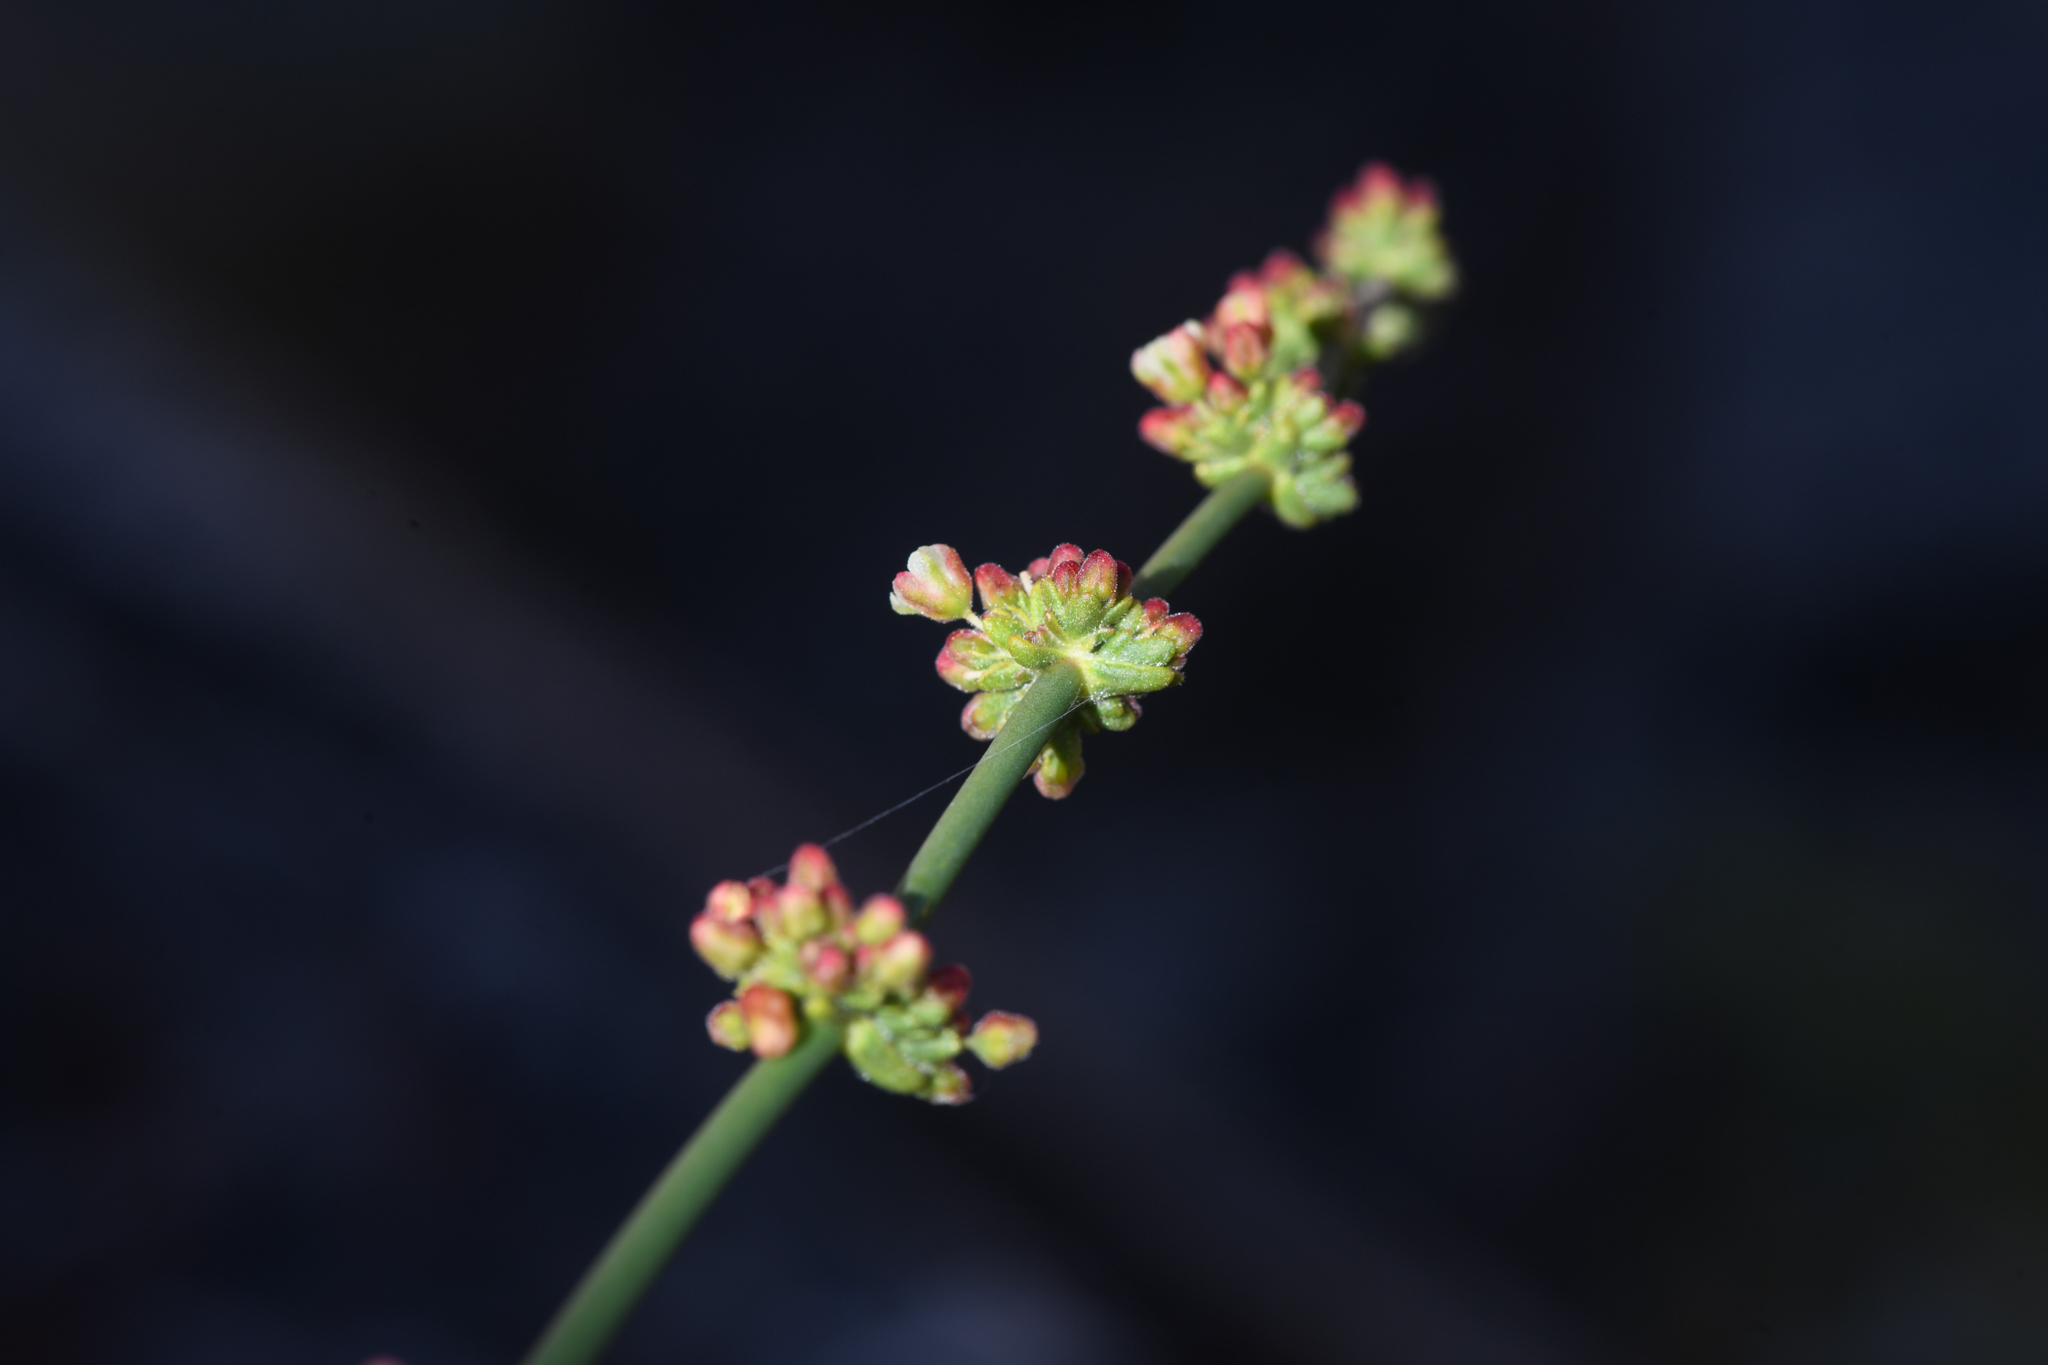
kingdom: Plantae
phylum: Tracheophyta
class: Magnoliopsida
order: Caryophyllales
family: Polygonaceae
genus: Eriogonum
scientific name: Eriogonum intrafractum
